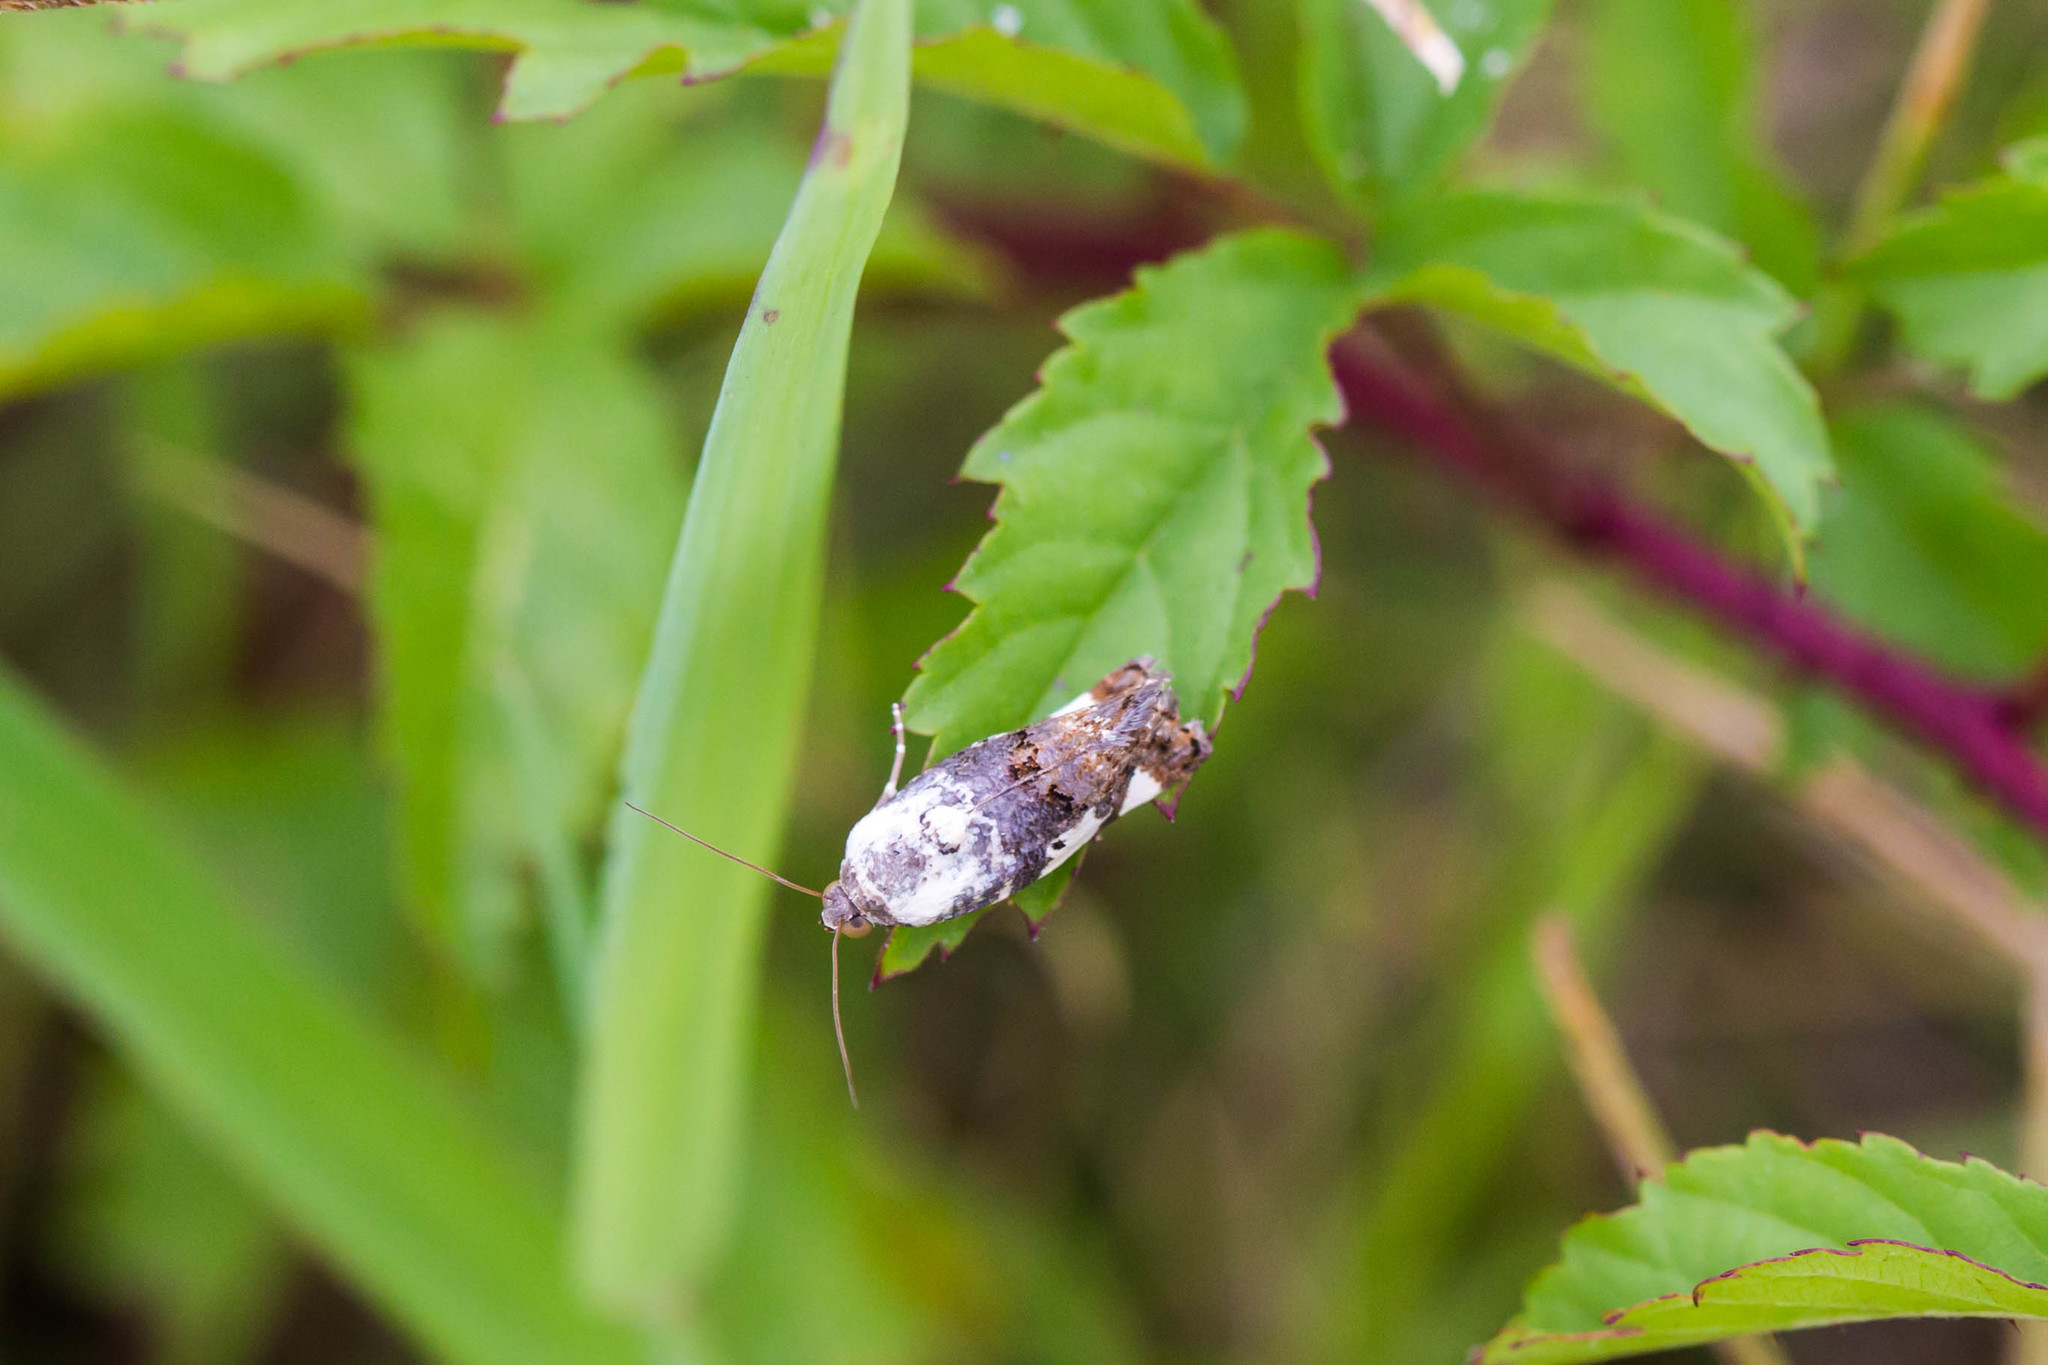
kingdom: Animalia
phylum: Arthropoda
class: Insecta
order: Lepidoptera
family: Noctuidae
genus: Acontia
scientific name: Acontia aprica
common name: Nun
